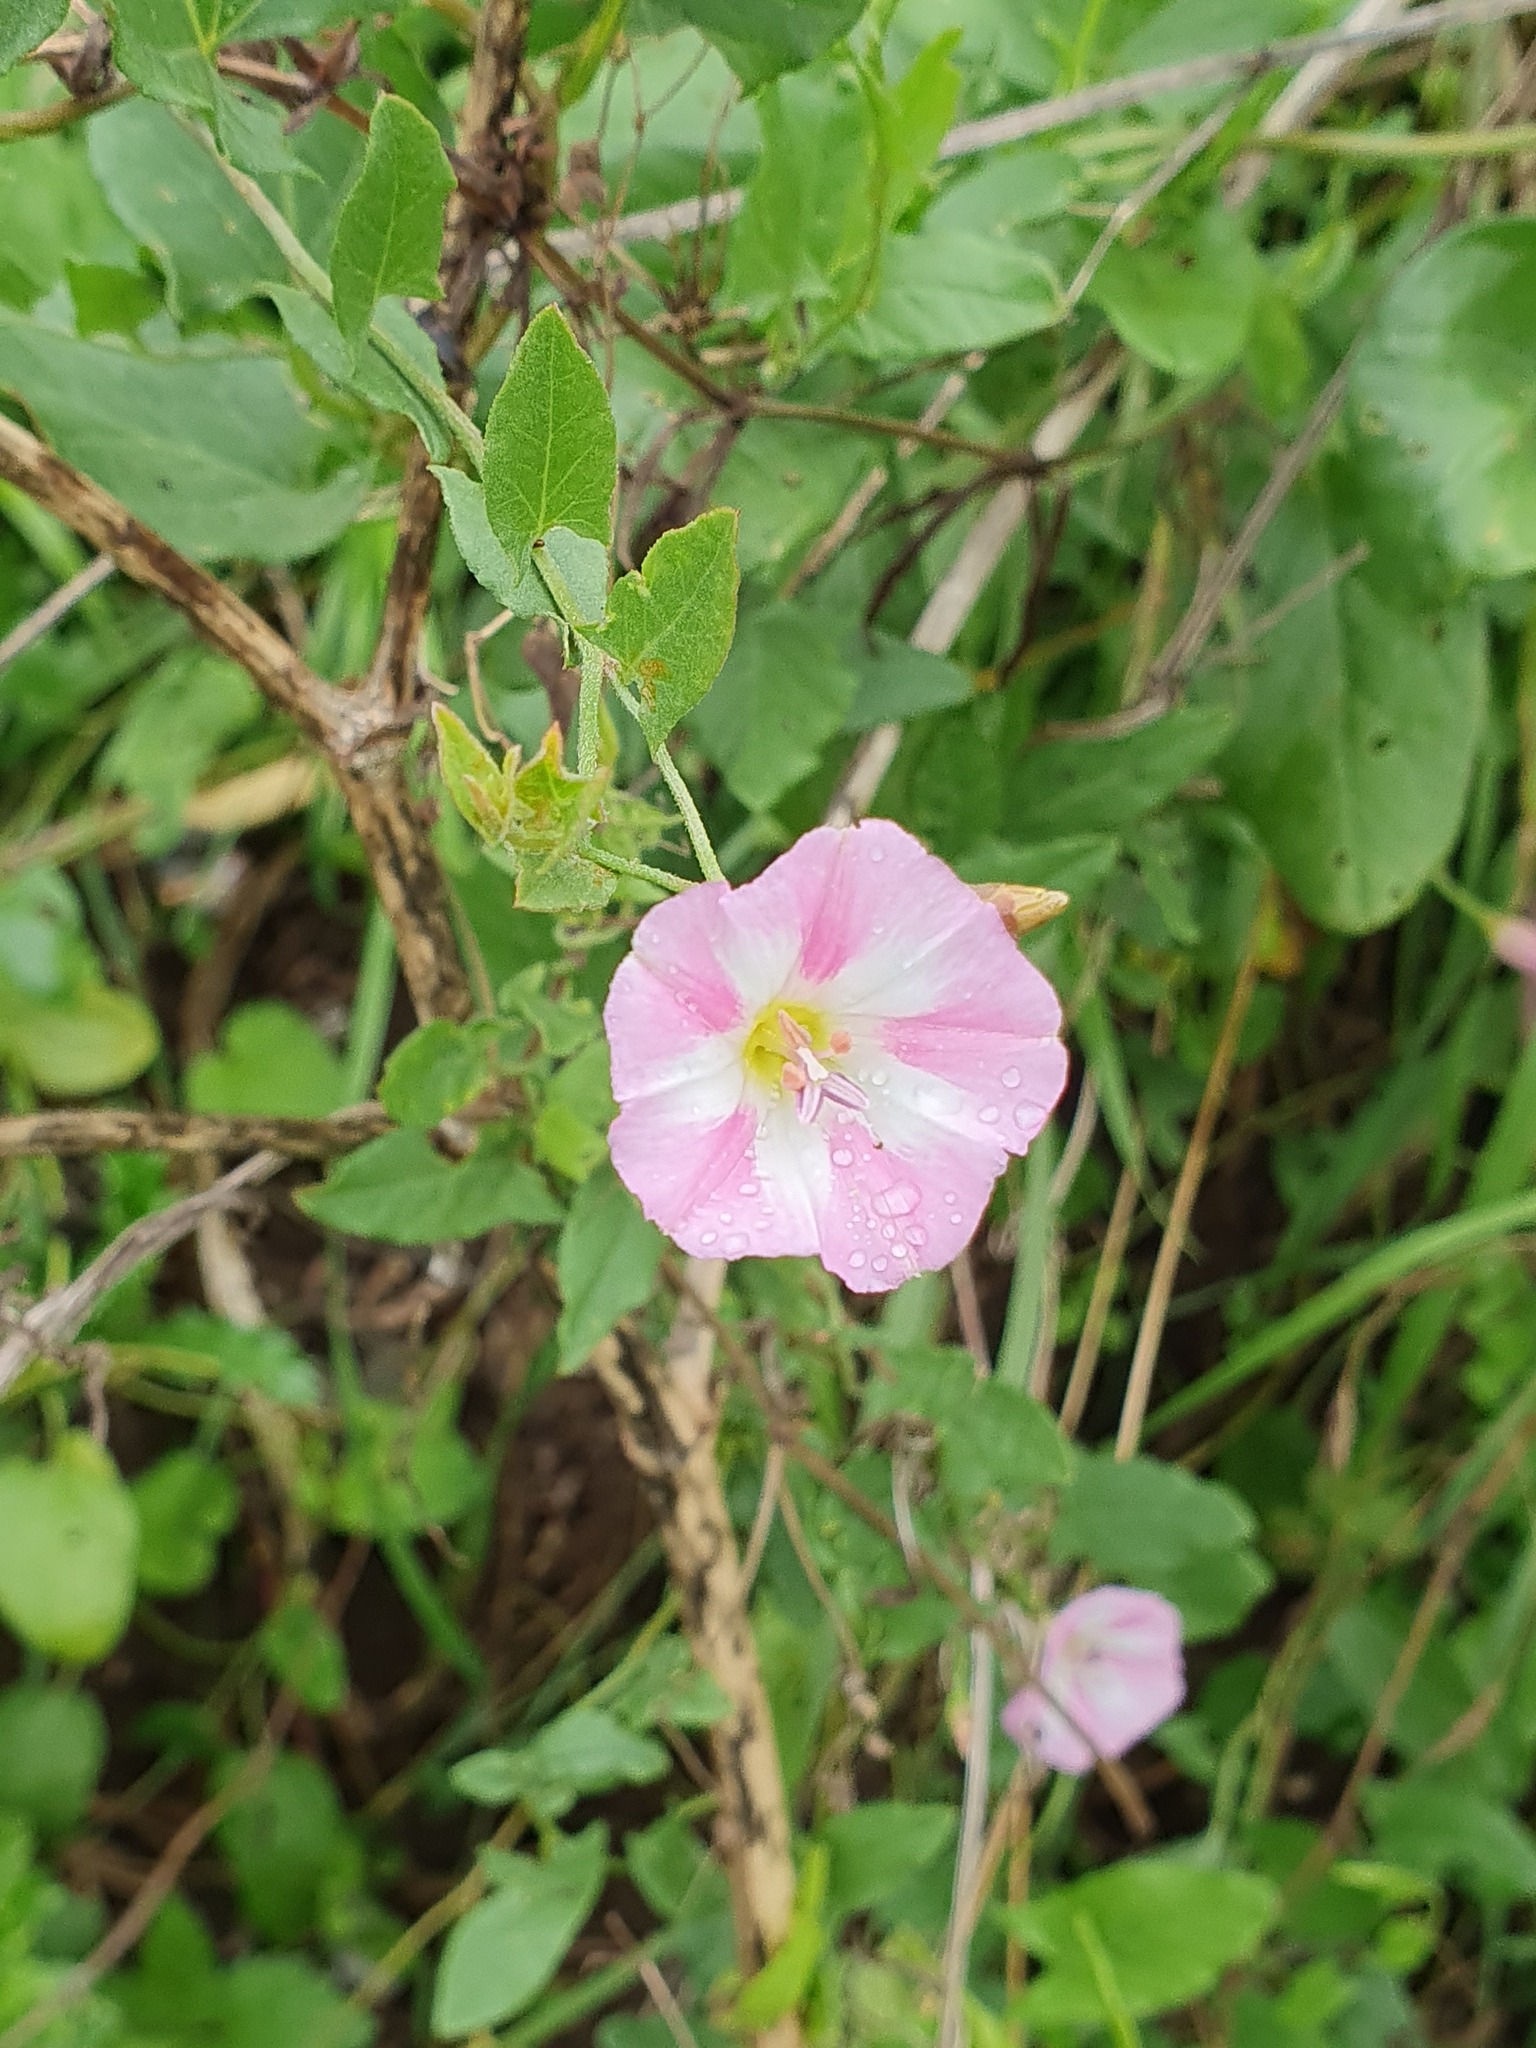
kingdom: Plantae
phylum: Tracheophyta
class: Magnoliopsida
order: Solanales
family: Convolvulaceae
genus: Convolvulus
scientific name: Convolvulus arvensis
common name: Field bindweed
